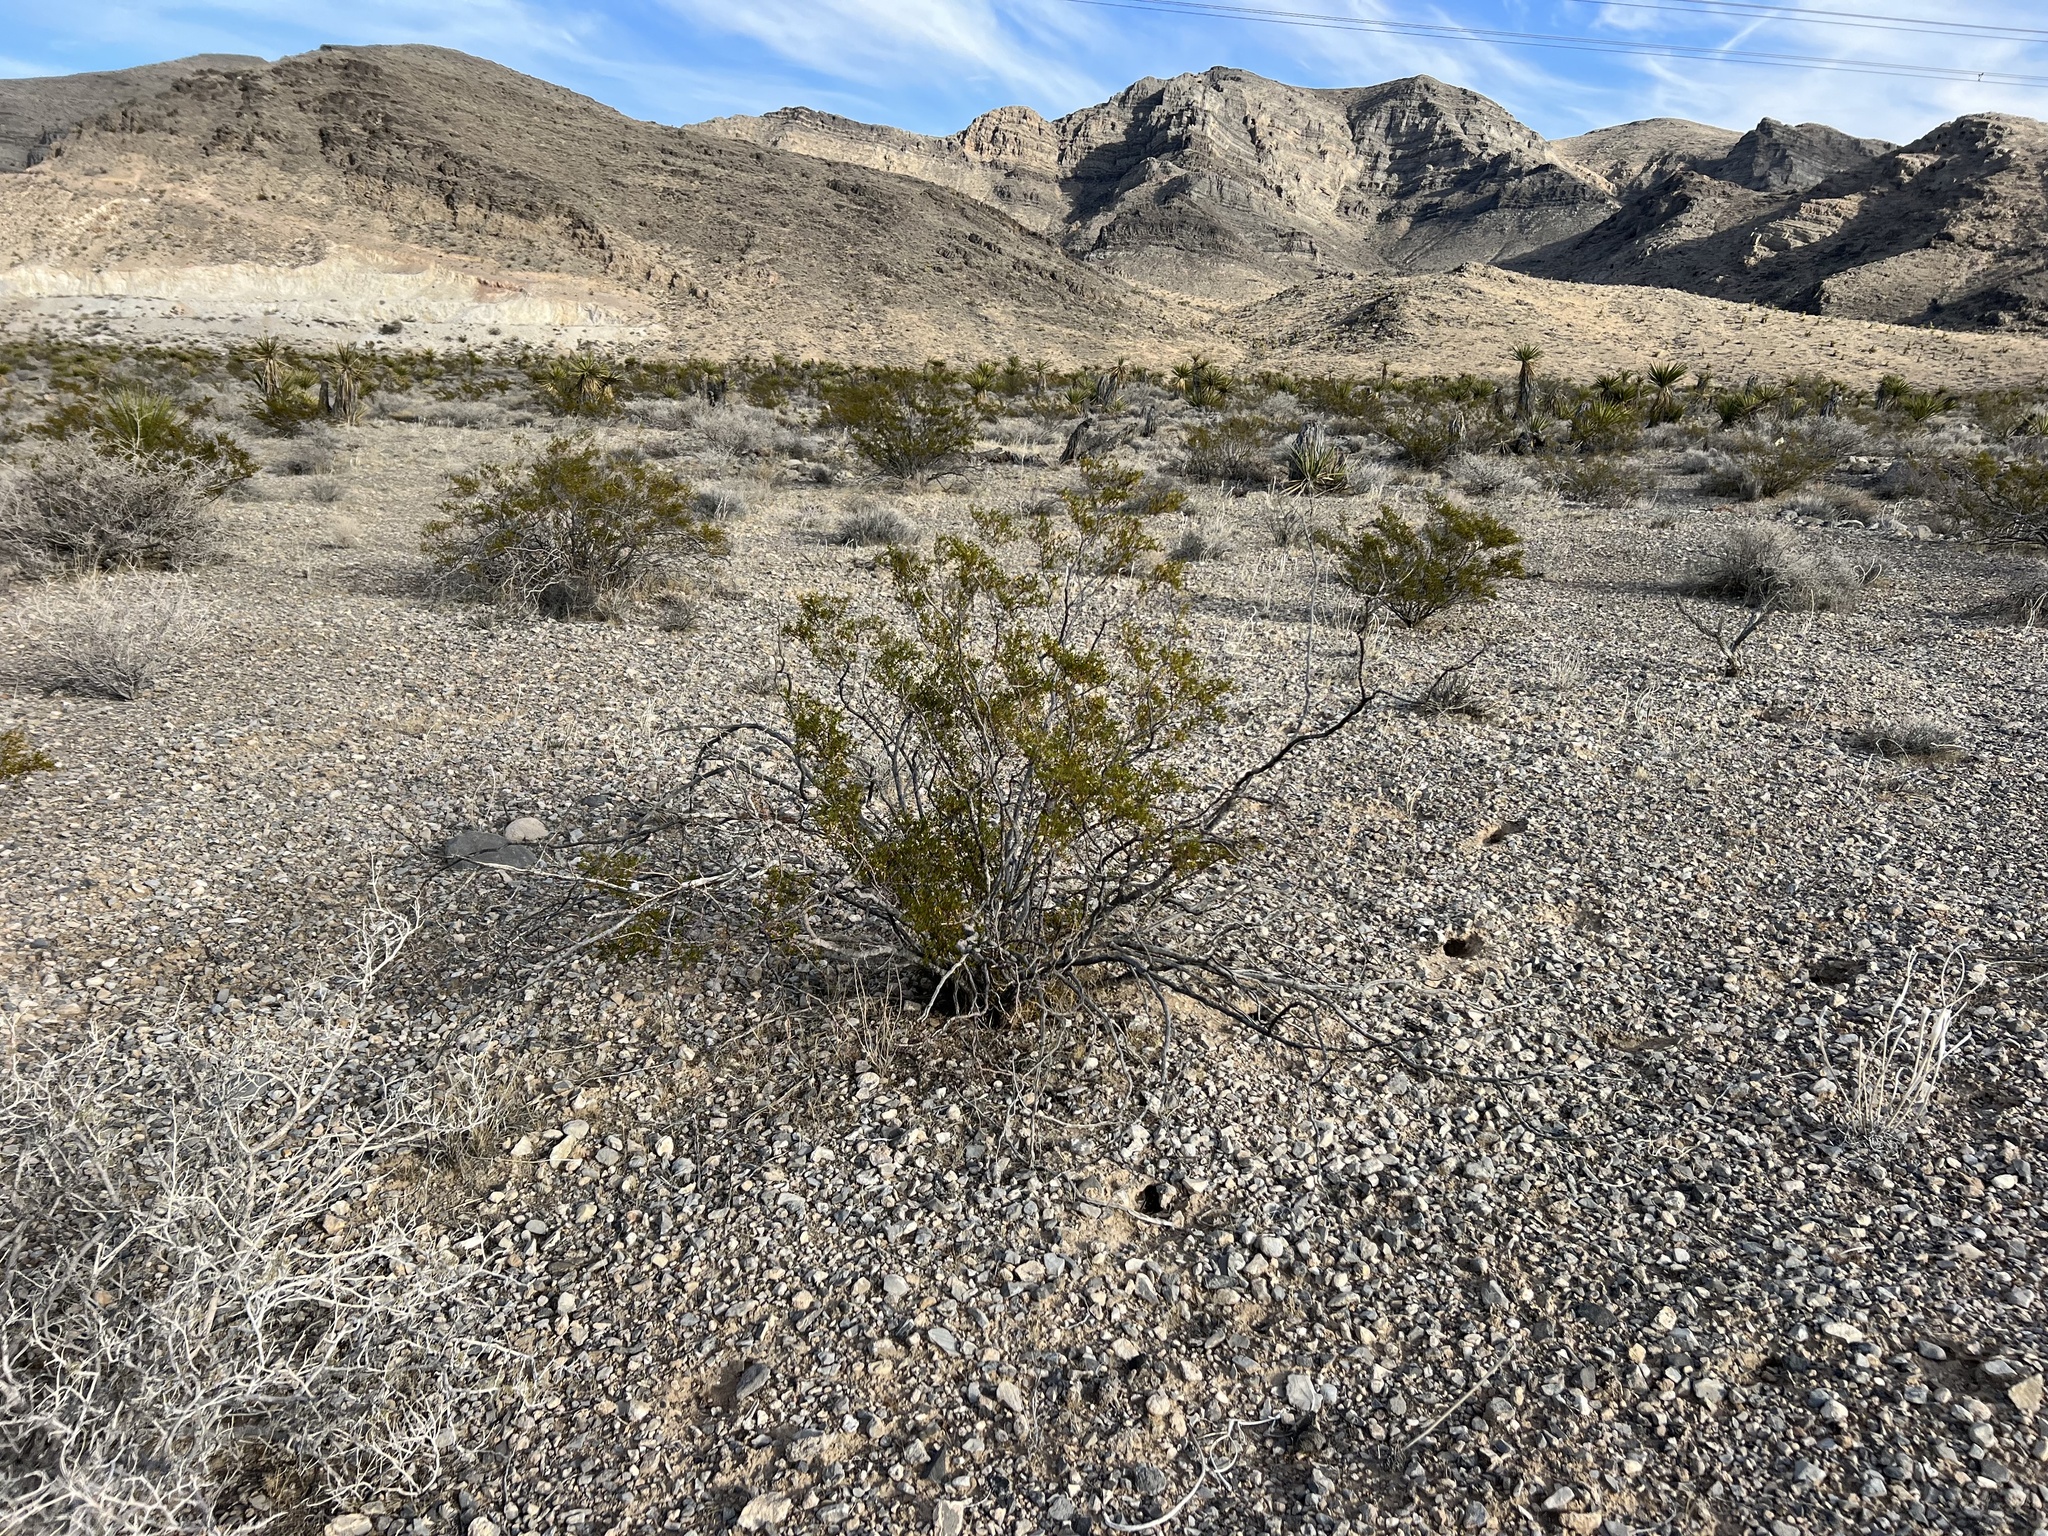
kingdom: Plantae
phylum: Tracheophyta
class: Magnoliopsida
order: Zygophyllales
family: Zygophyllaceae
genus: Larrea
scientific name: Larrea tridentata
